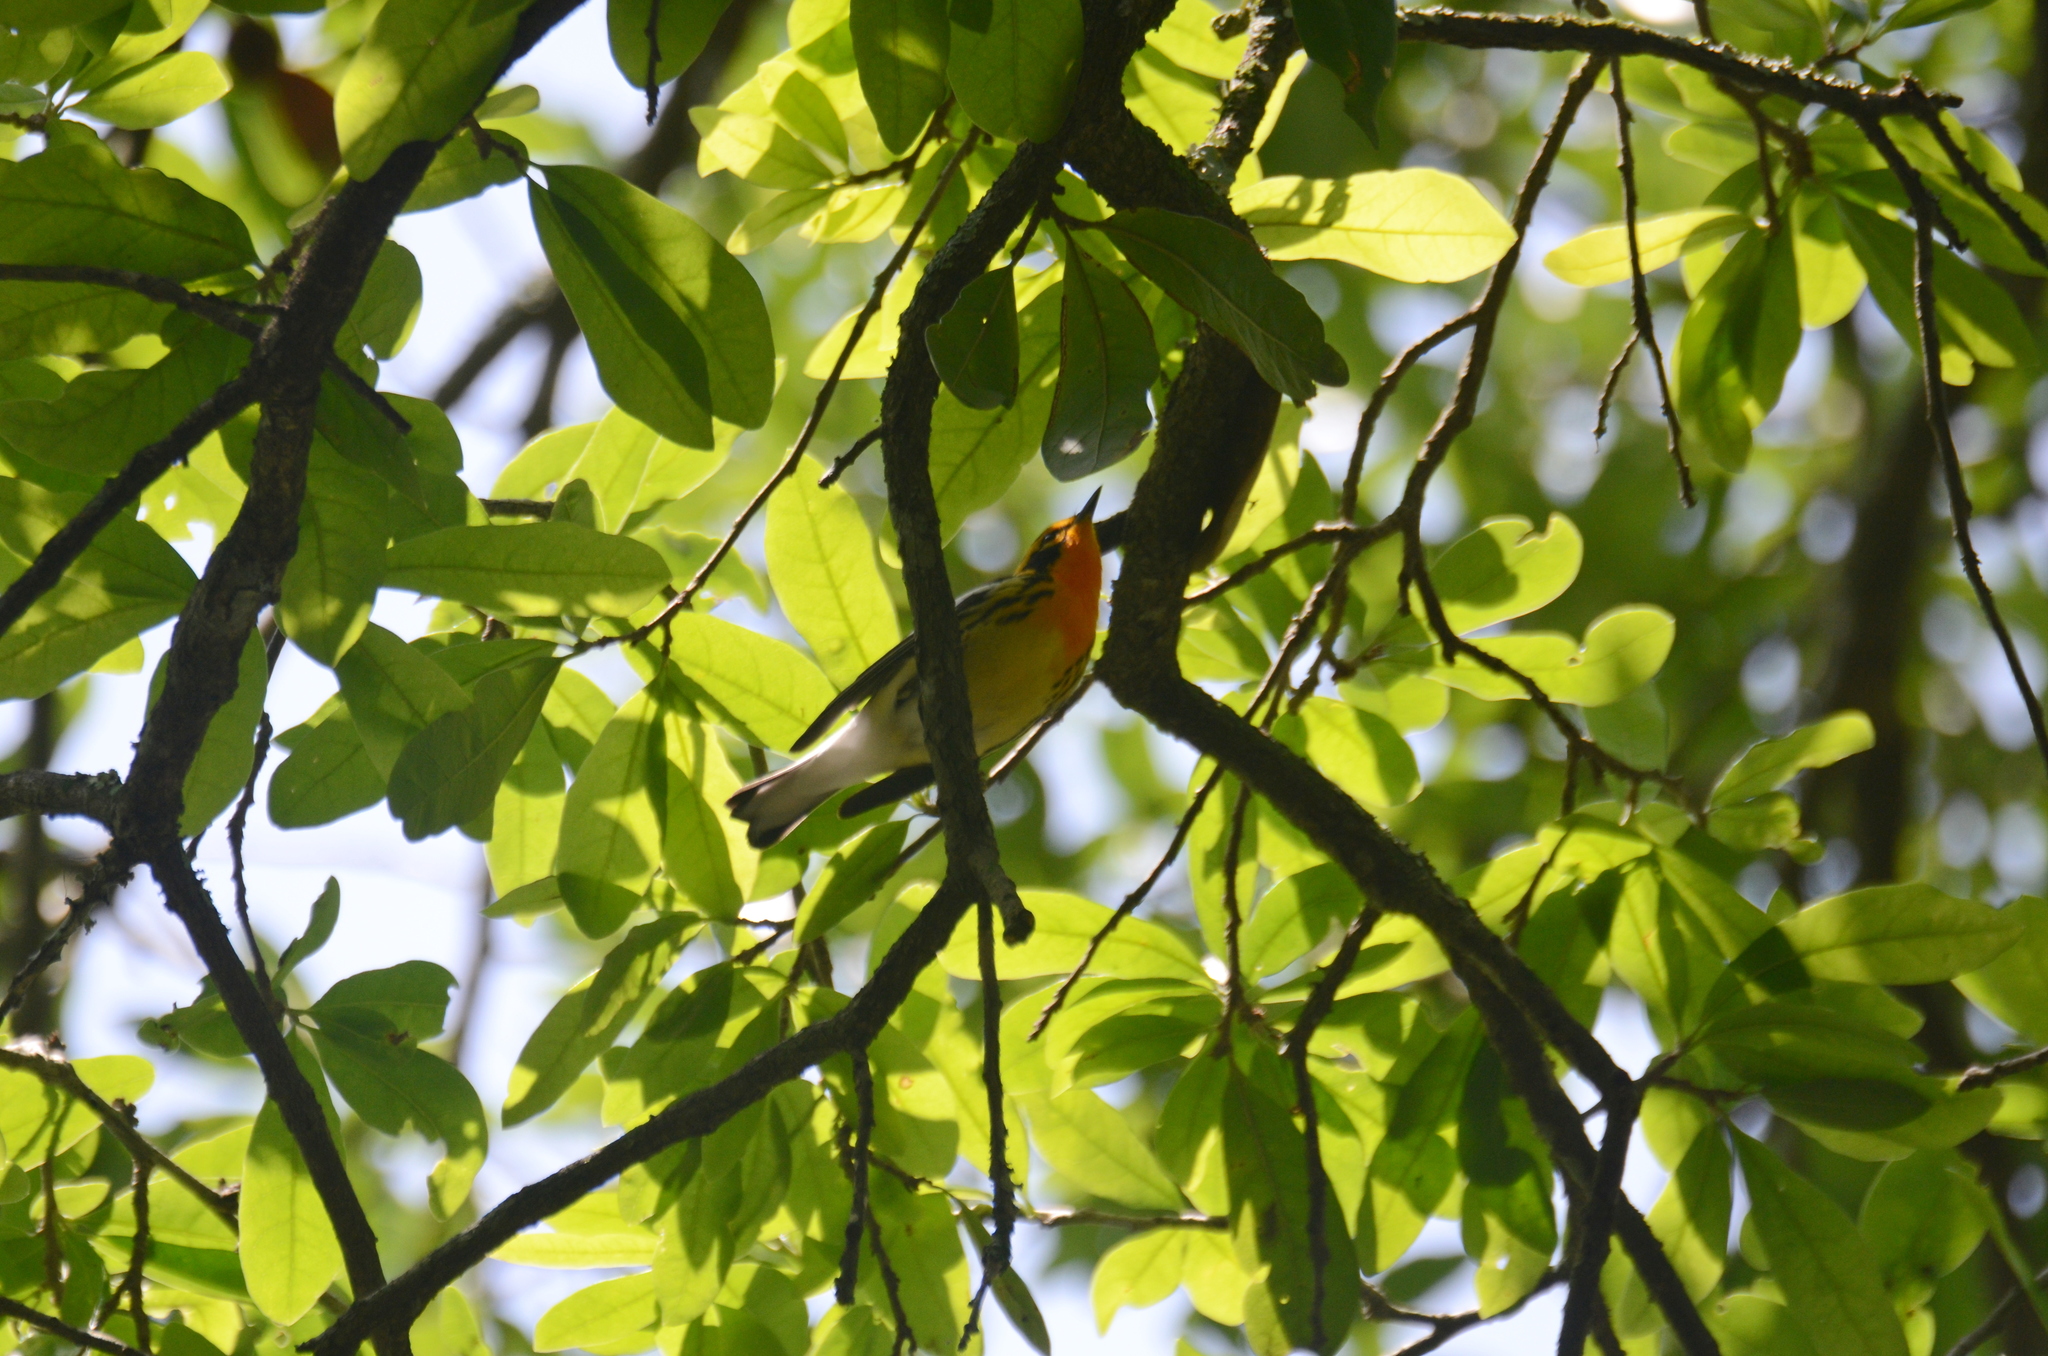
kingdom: Animalia
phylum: Chordata
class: Aves
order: Passeriformes
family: Parulidae
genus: Setophaga
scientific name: Setophaga fusca
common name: Blackburnian warbler
